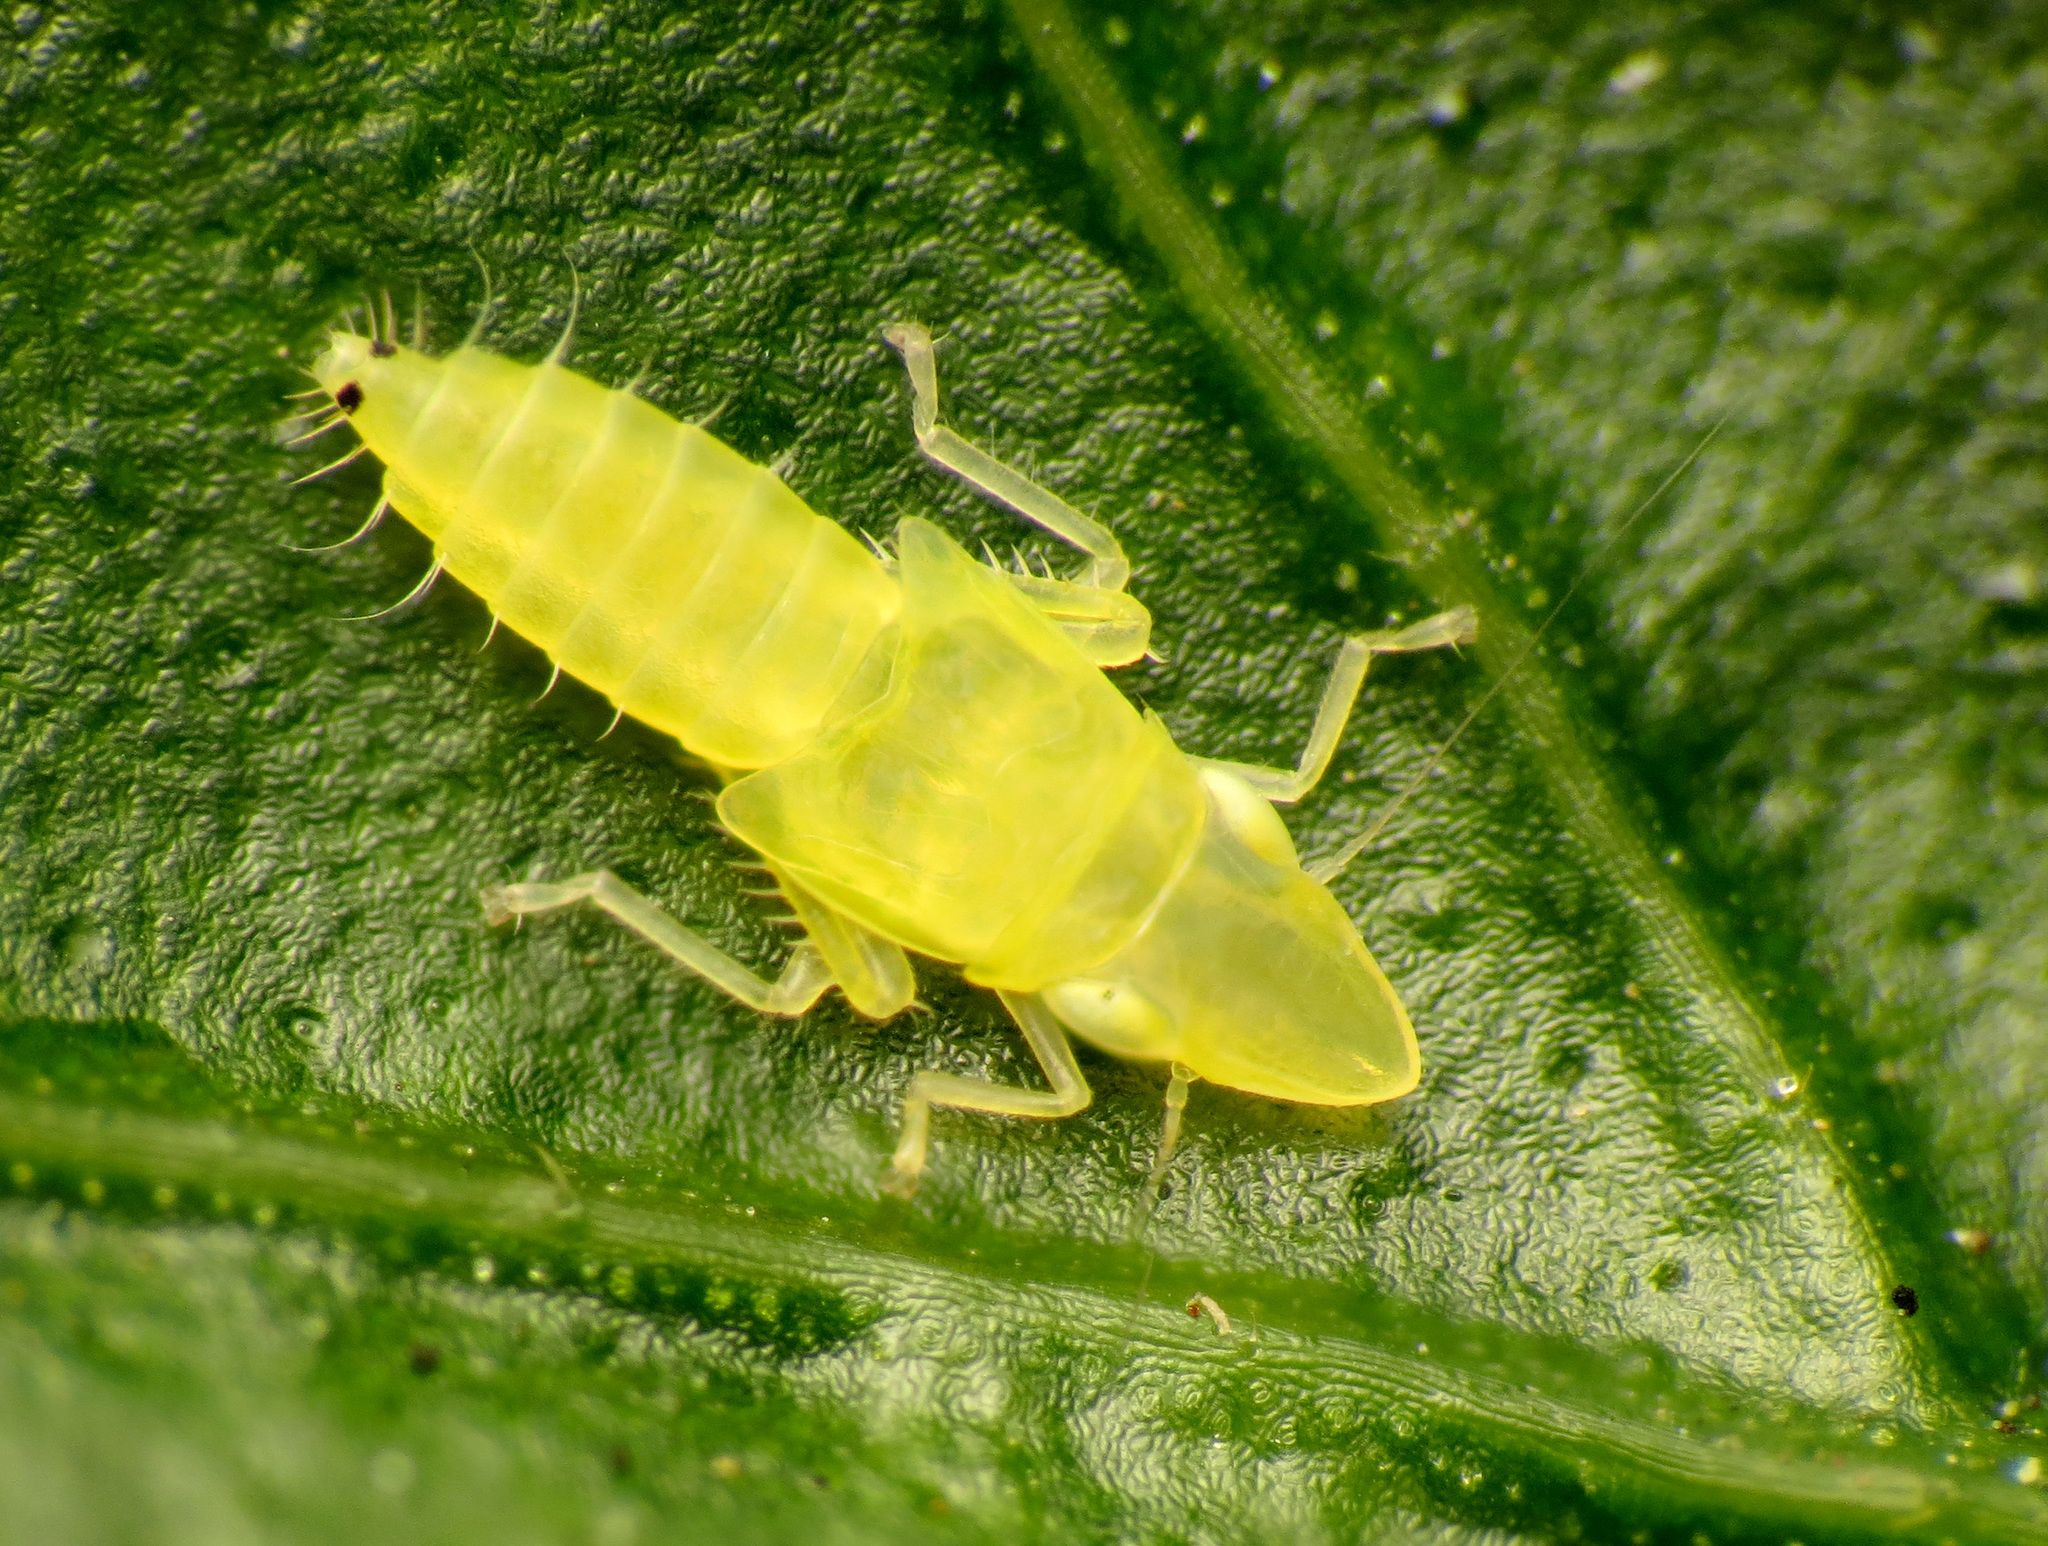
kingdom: Animalia
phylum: Arthropoda
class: Insecta
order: Hemiptera
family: Cicadellidae
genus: Sophonia
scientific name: Sophonia orientalis
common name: Two-spotted leafhopper
